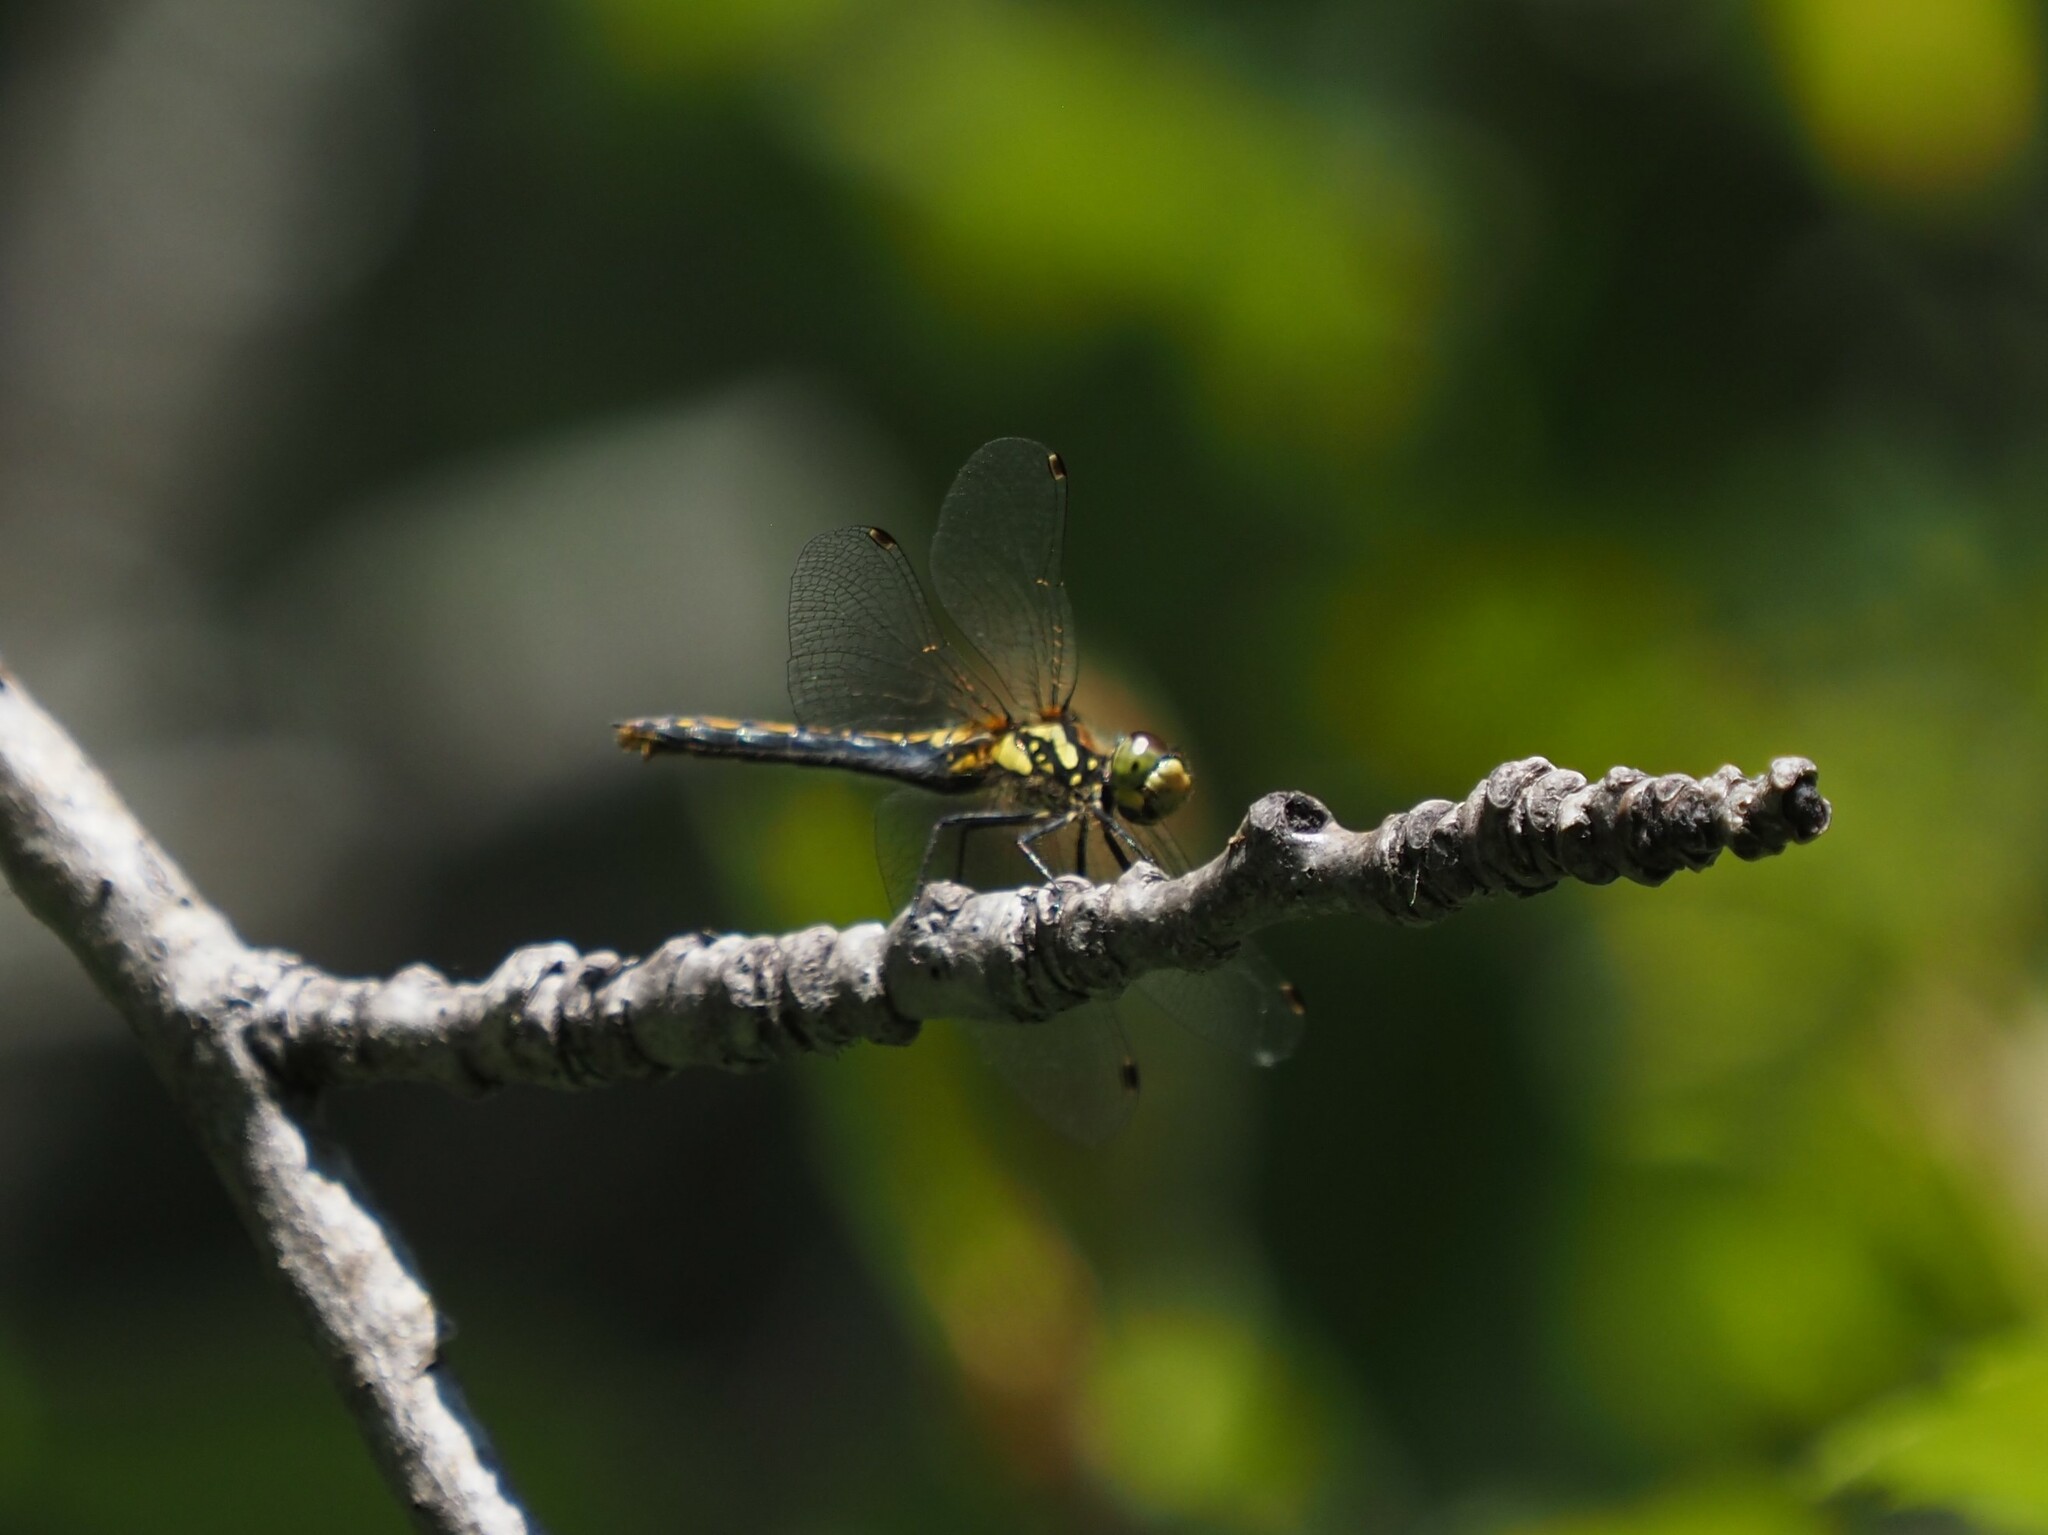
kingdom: Animalia
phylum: Arthropoda
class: Insecta
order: Odonata
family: Libellulidae
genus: Sympetrum
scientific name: Sympetrum danae
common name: Black darter
